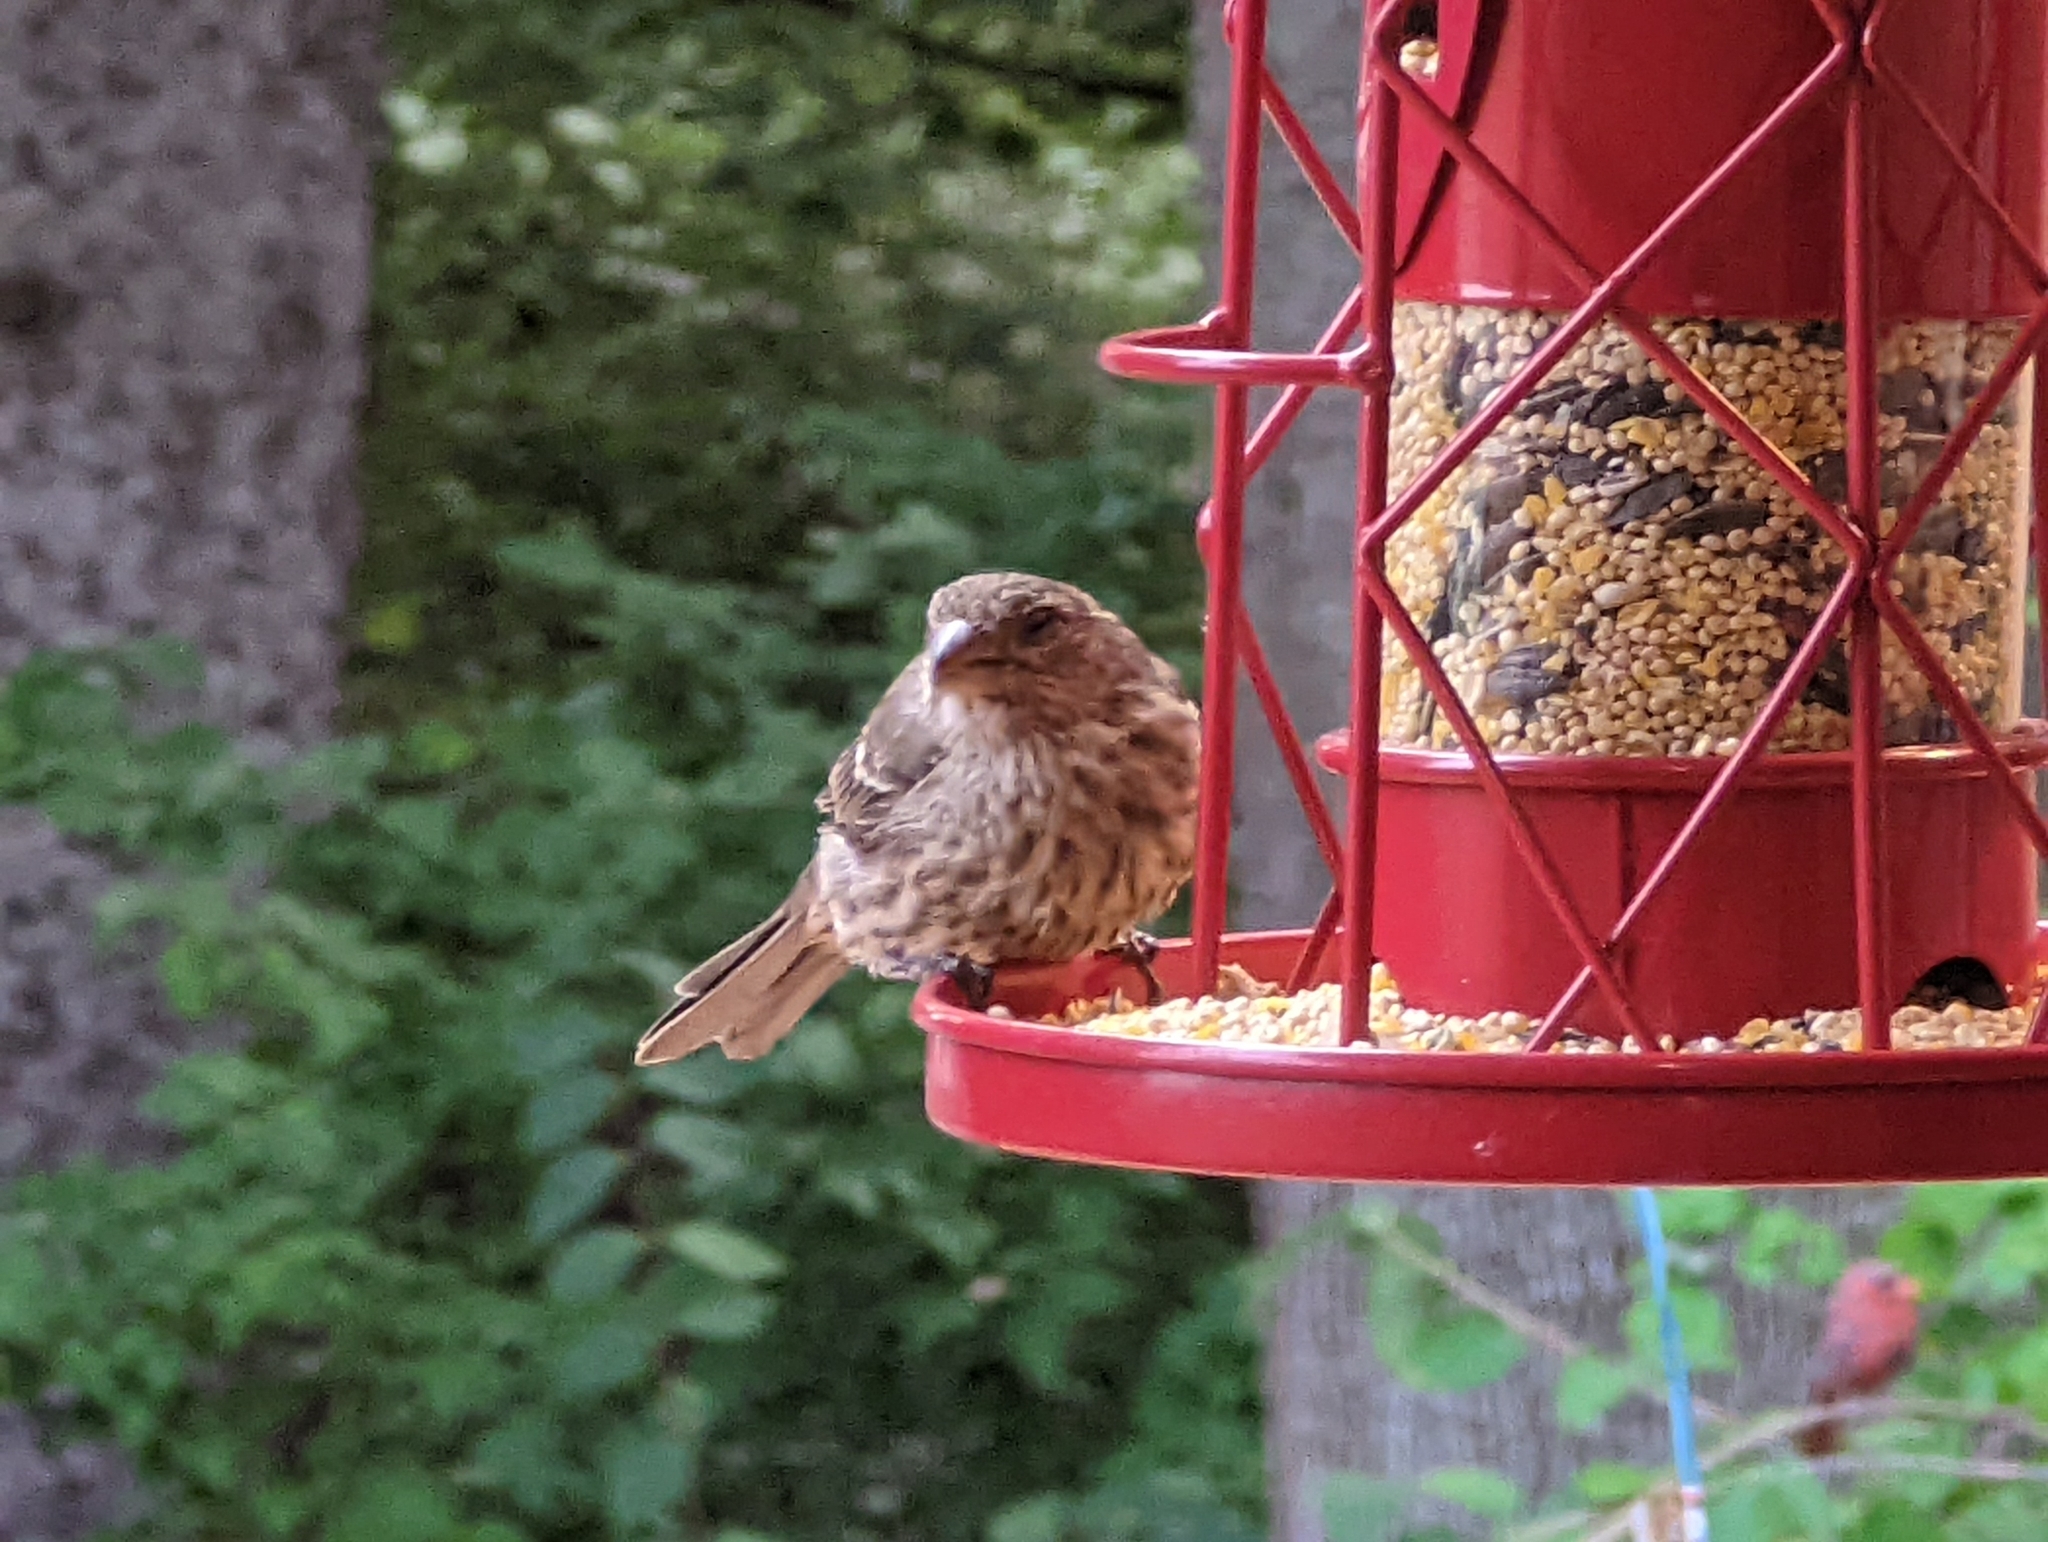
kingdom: Animalia
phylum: Chordata
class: Aves
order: Passeriformes
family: Fringillidae
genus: Haemorhous
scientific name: Haemorhous mexicanus
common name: House finch
